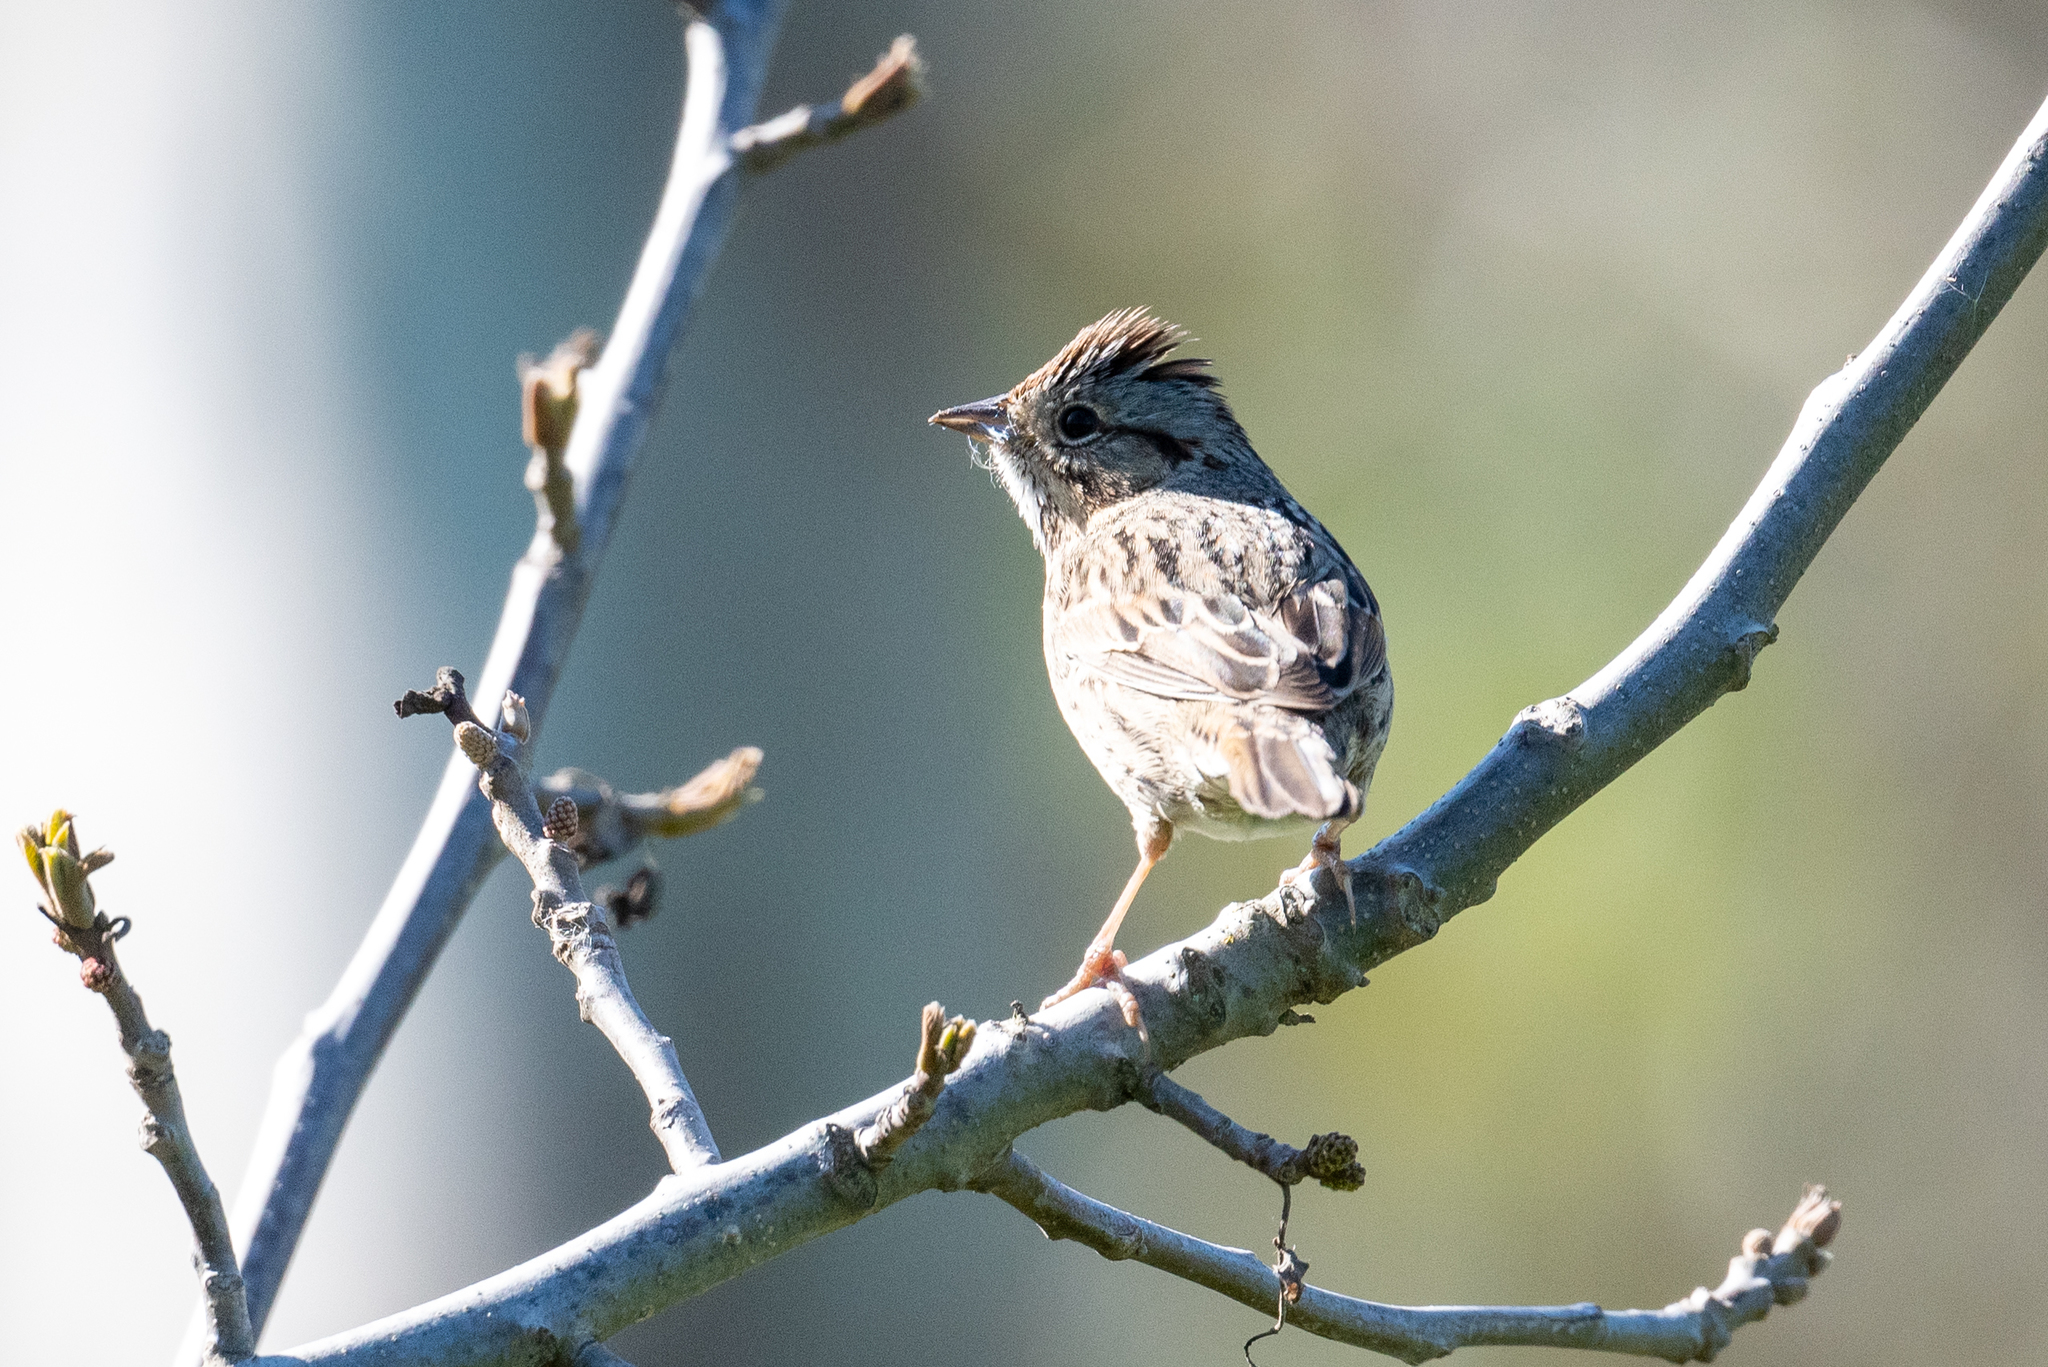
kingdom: Animalia
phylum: Chordata
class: Aves
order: Passeriformes
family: Passerellidae
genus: Melospiza
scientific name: Melospiza lincolnii
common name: Lincoln's sparrow
